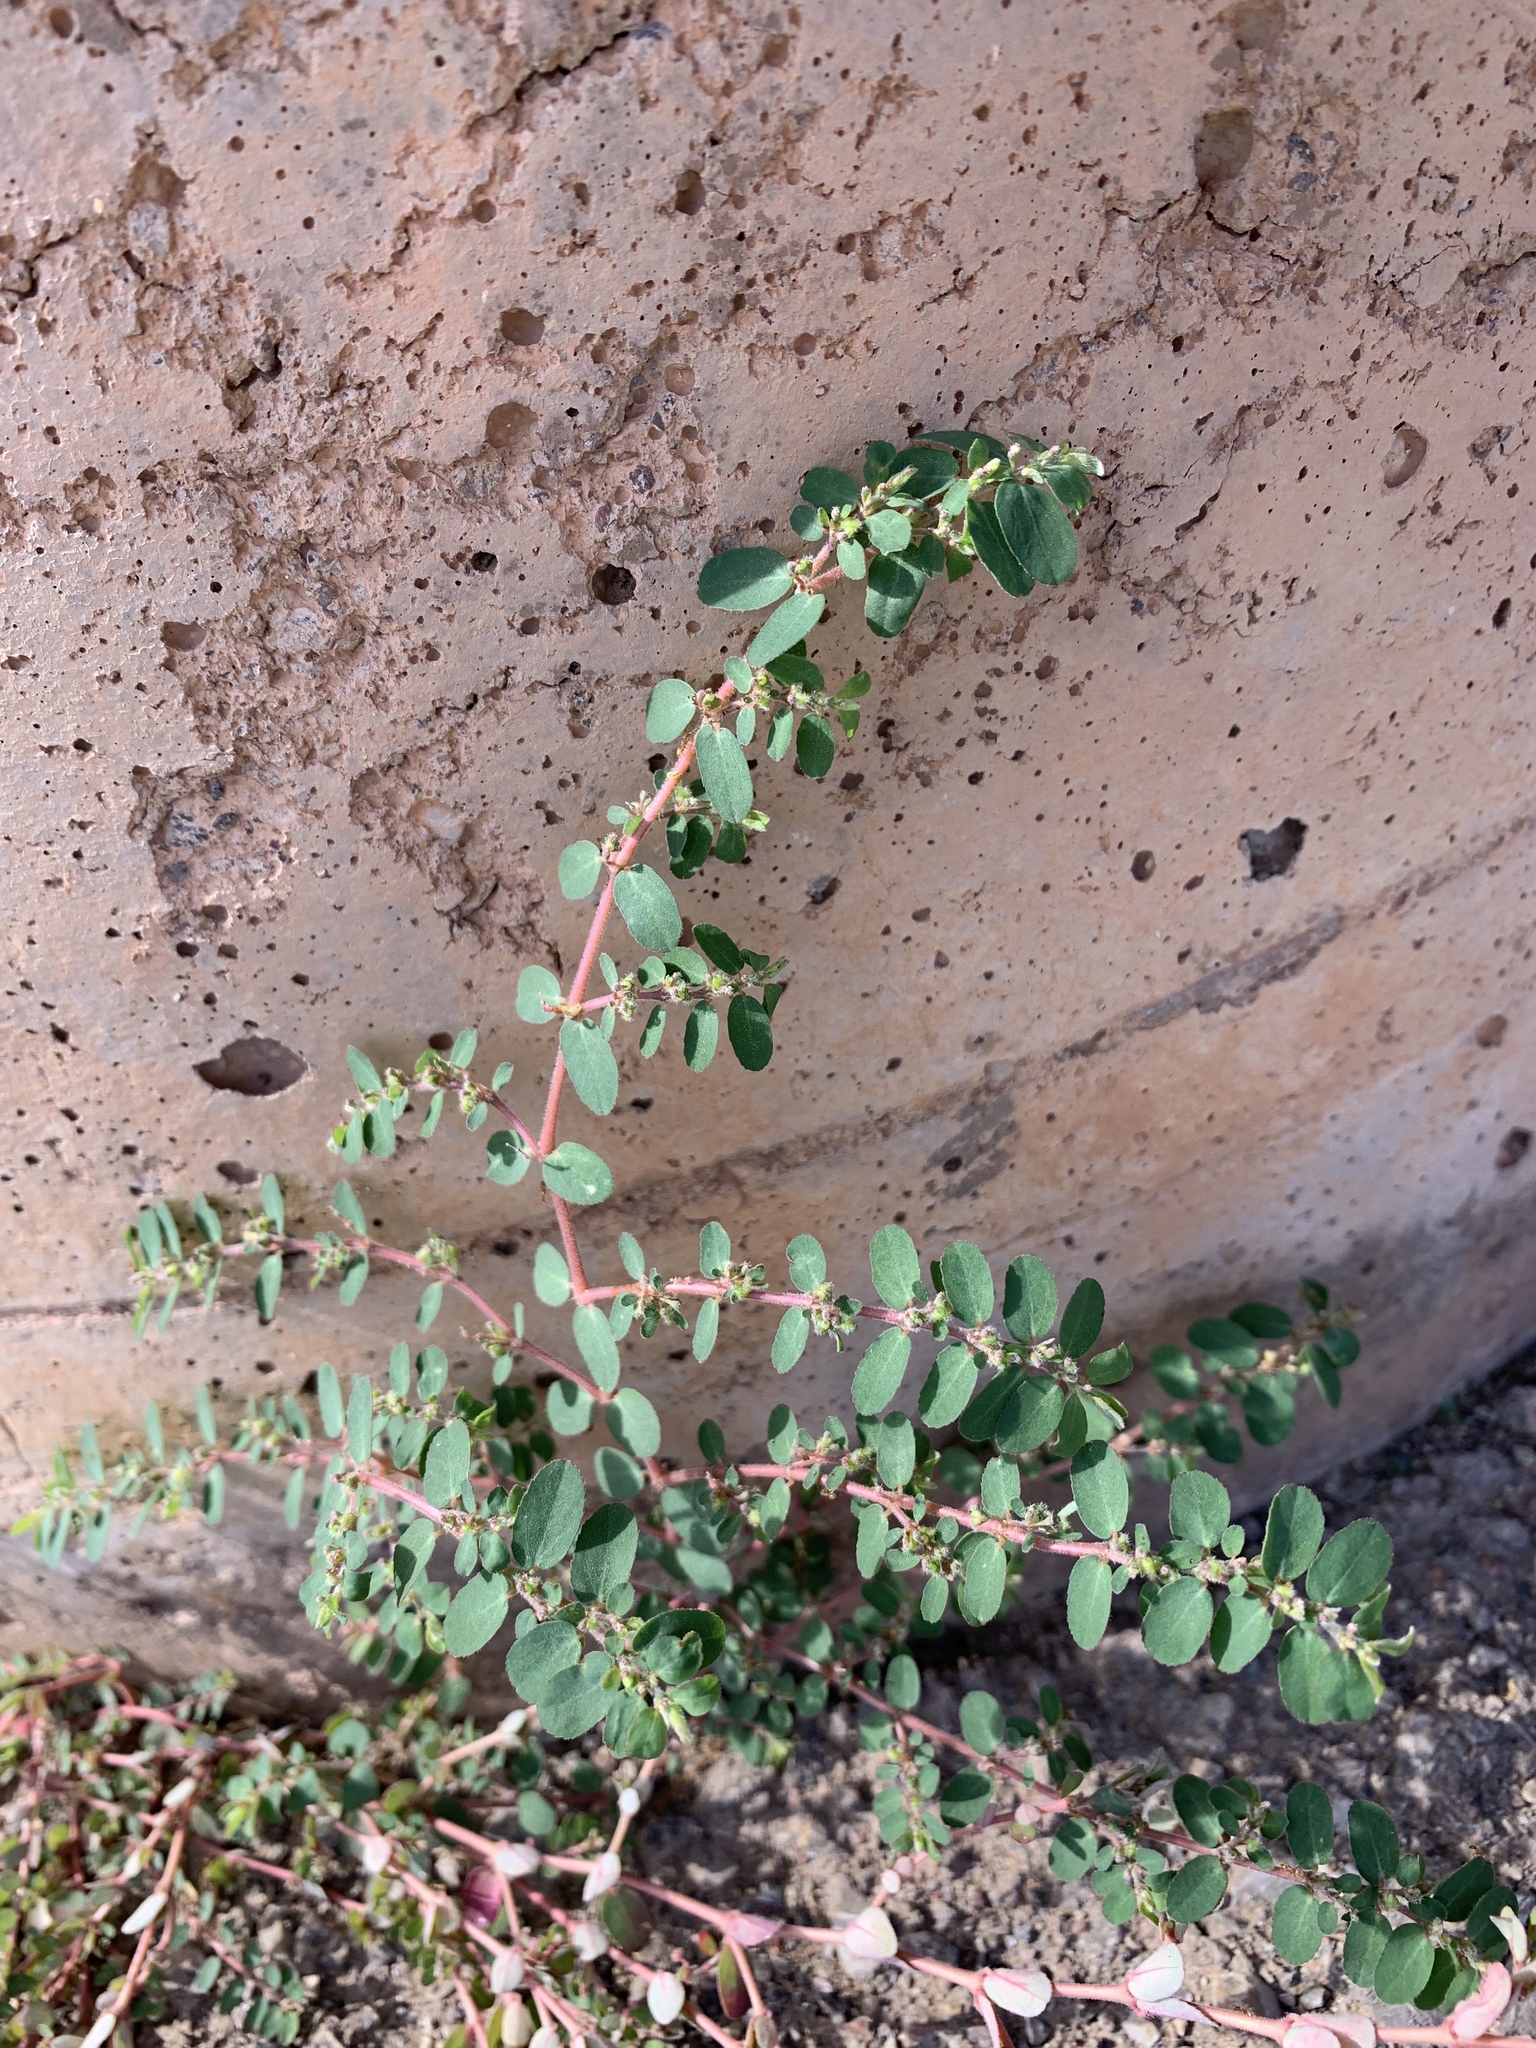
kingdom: Plantae
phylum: Tracheophyta
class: Magnoliopsida
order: Malpighiales
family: Euphorbiaceae
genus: Euphorbia
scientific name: Euphorbia prostrata
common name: Prostrate sandmat
